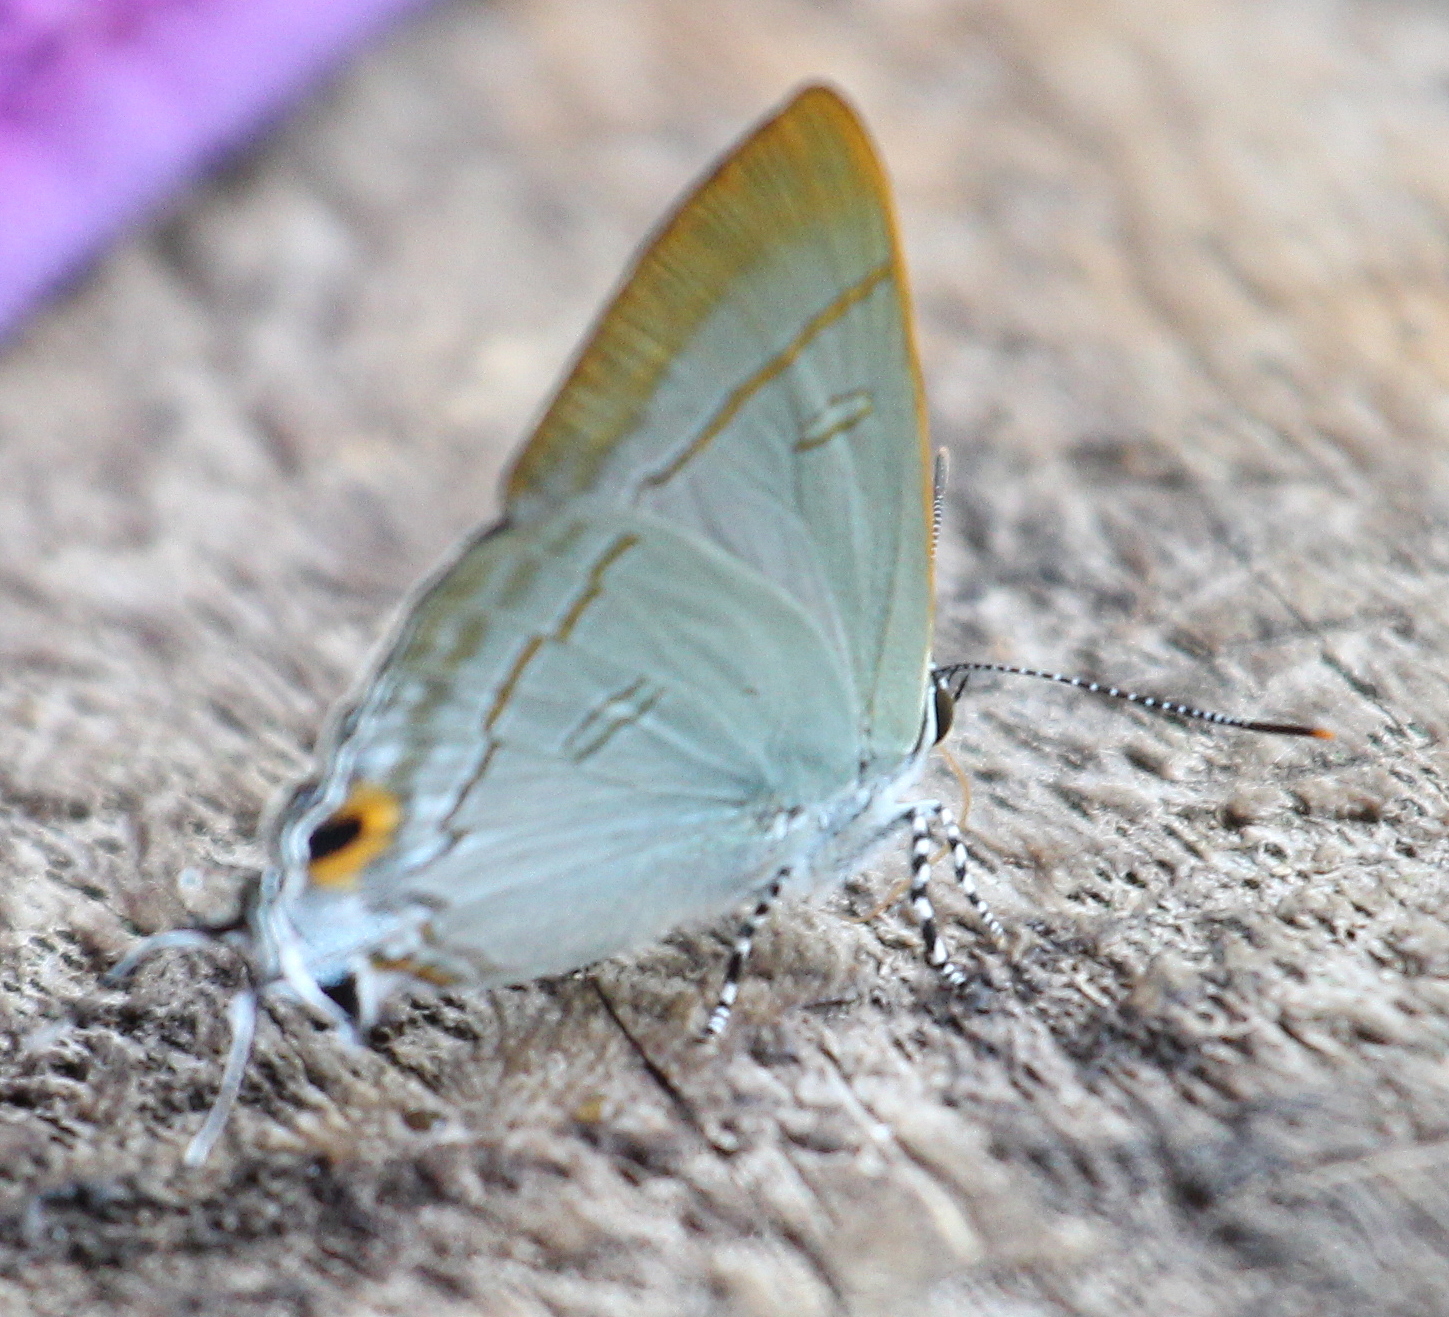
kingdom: Animalia
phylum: Arthropoda
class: Insecta
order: Lepidoptera
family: Lycaenidae
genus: Hypolycaena
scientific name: Hypolycaena erylus
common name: Common tit
